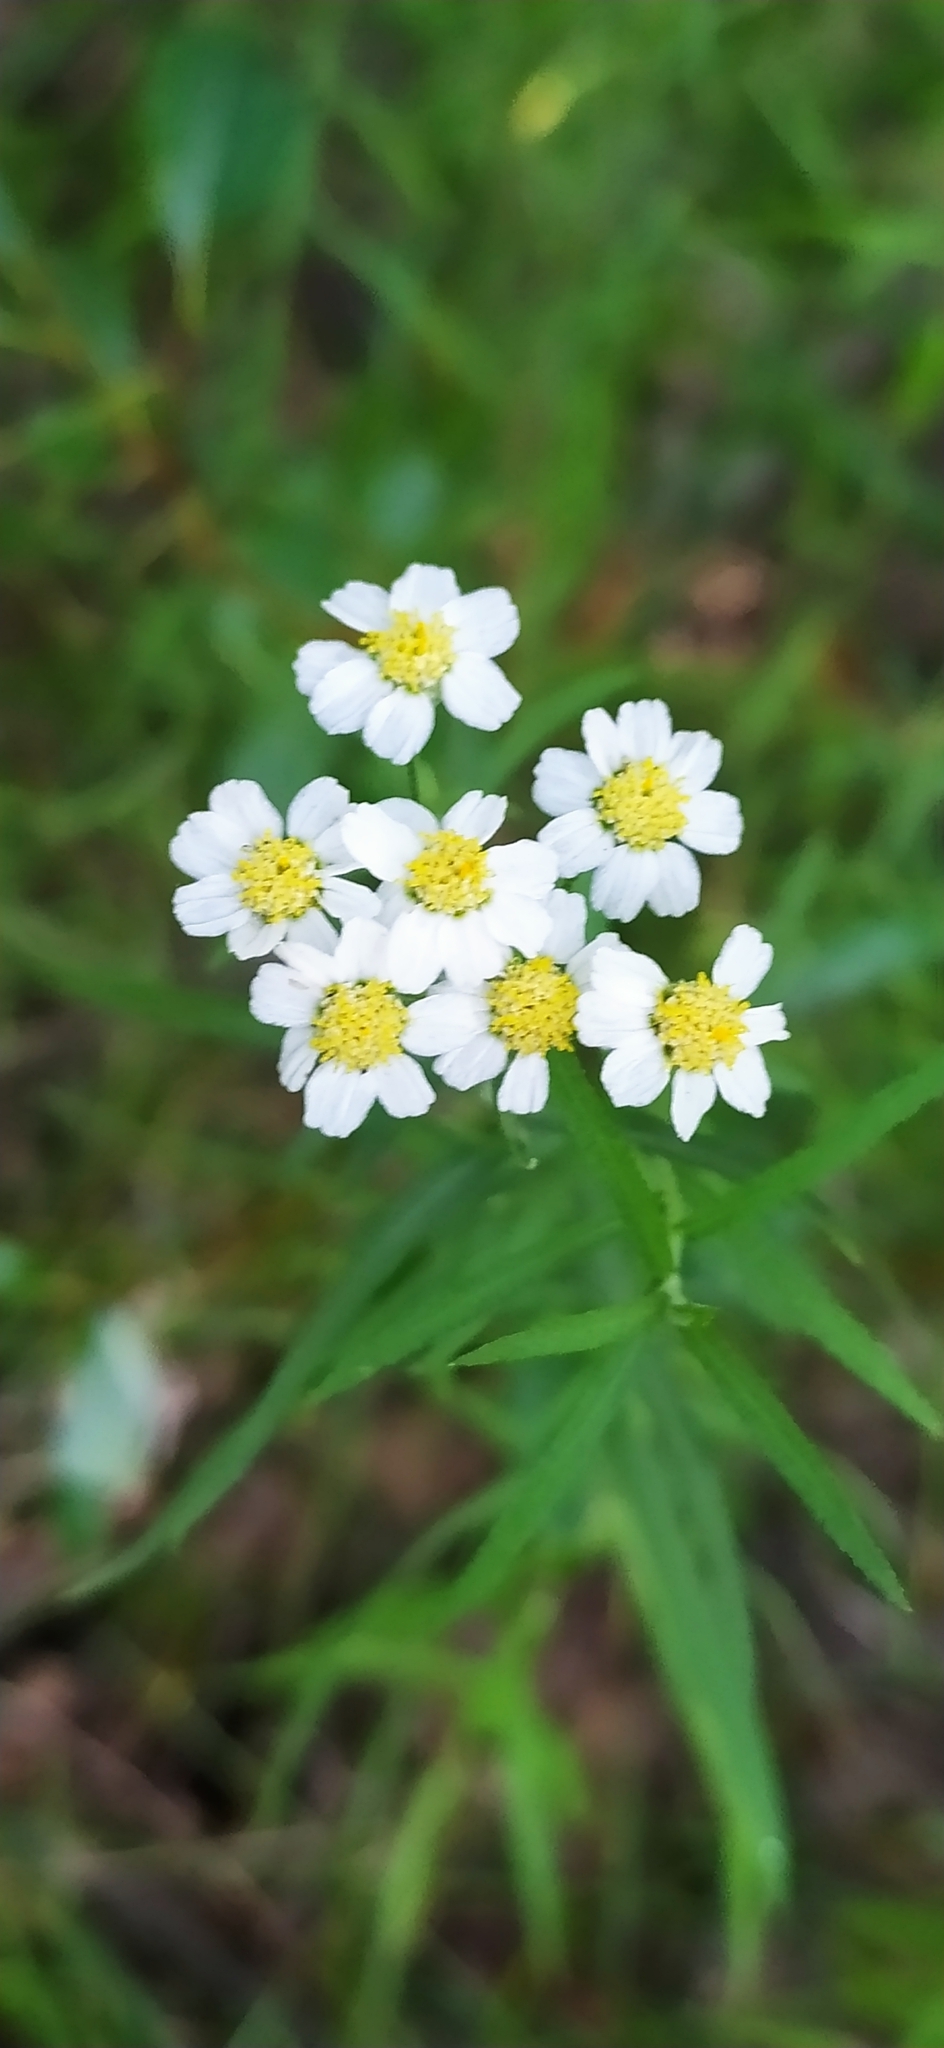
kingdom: Plantae
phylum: Tracheophyta
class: Magnoliopsida
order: Asterales
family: Asteraceae
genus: Achillea
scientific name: Achillea salicifolia
